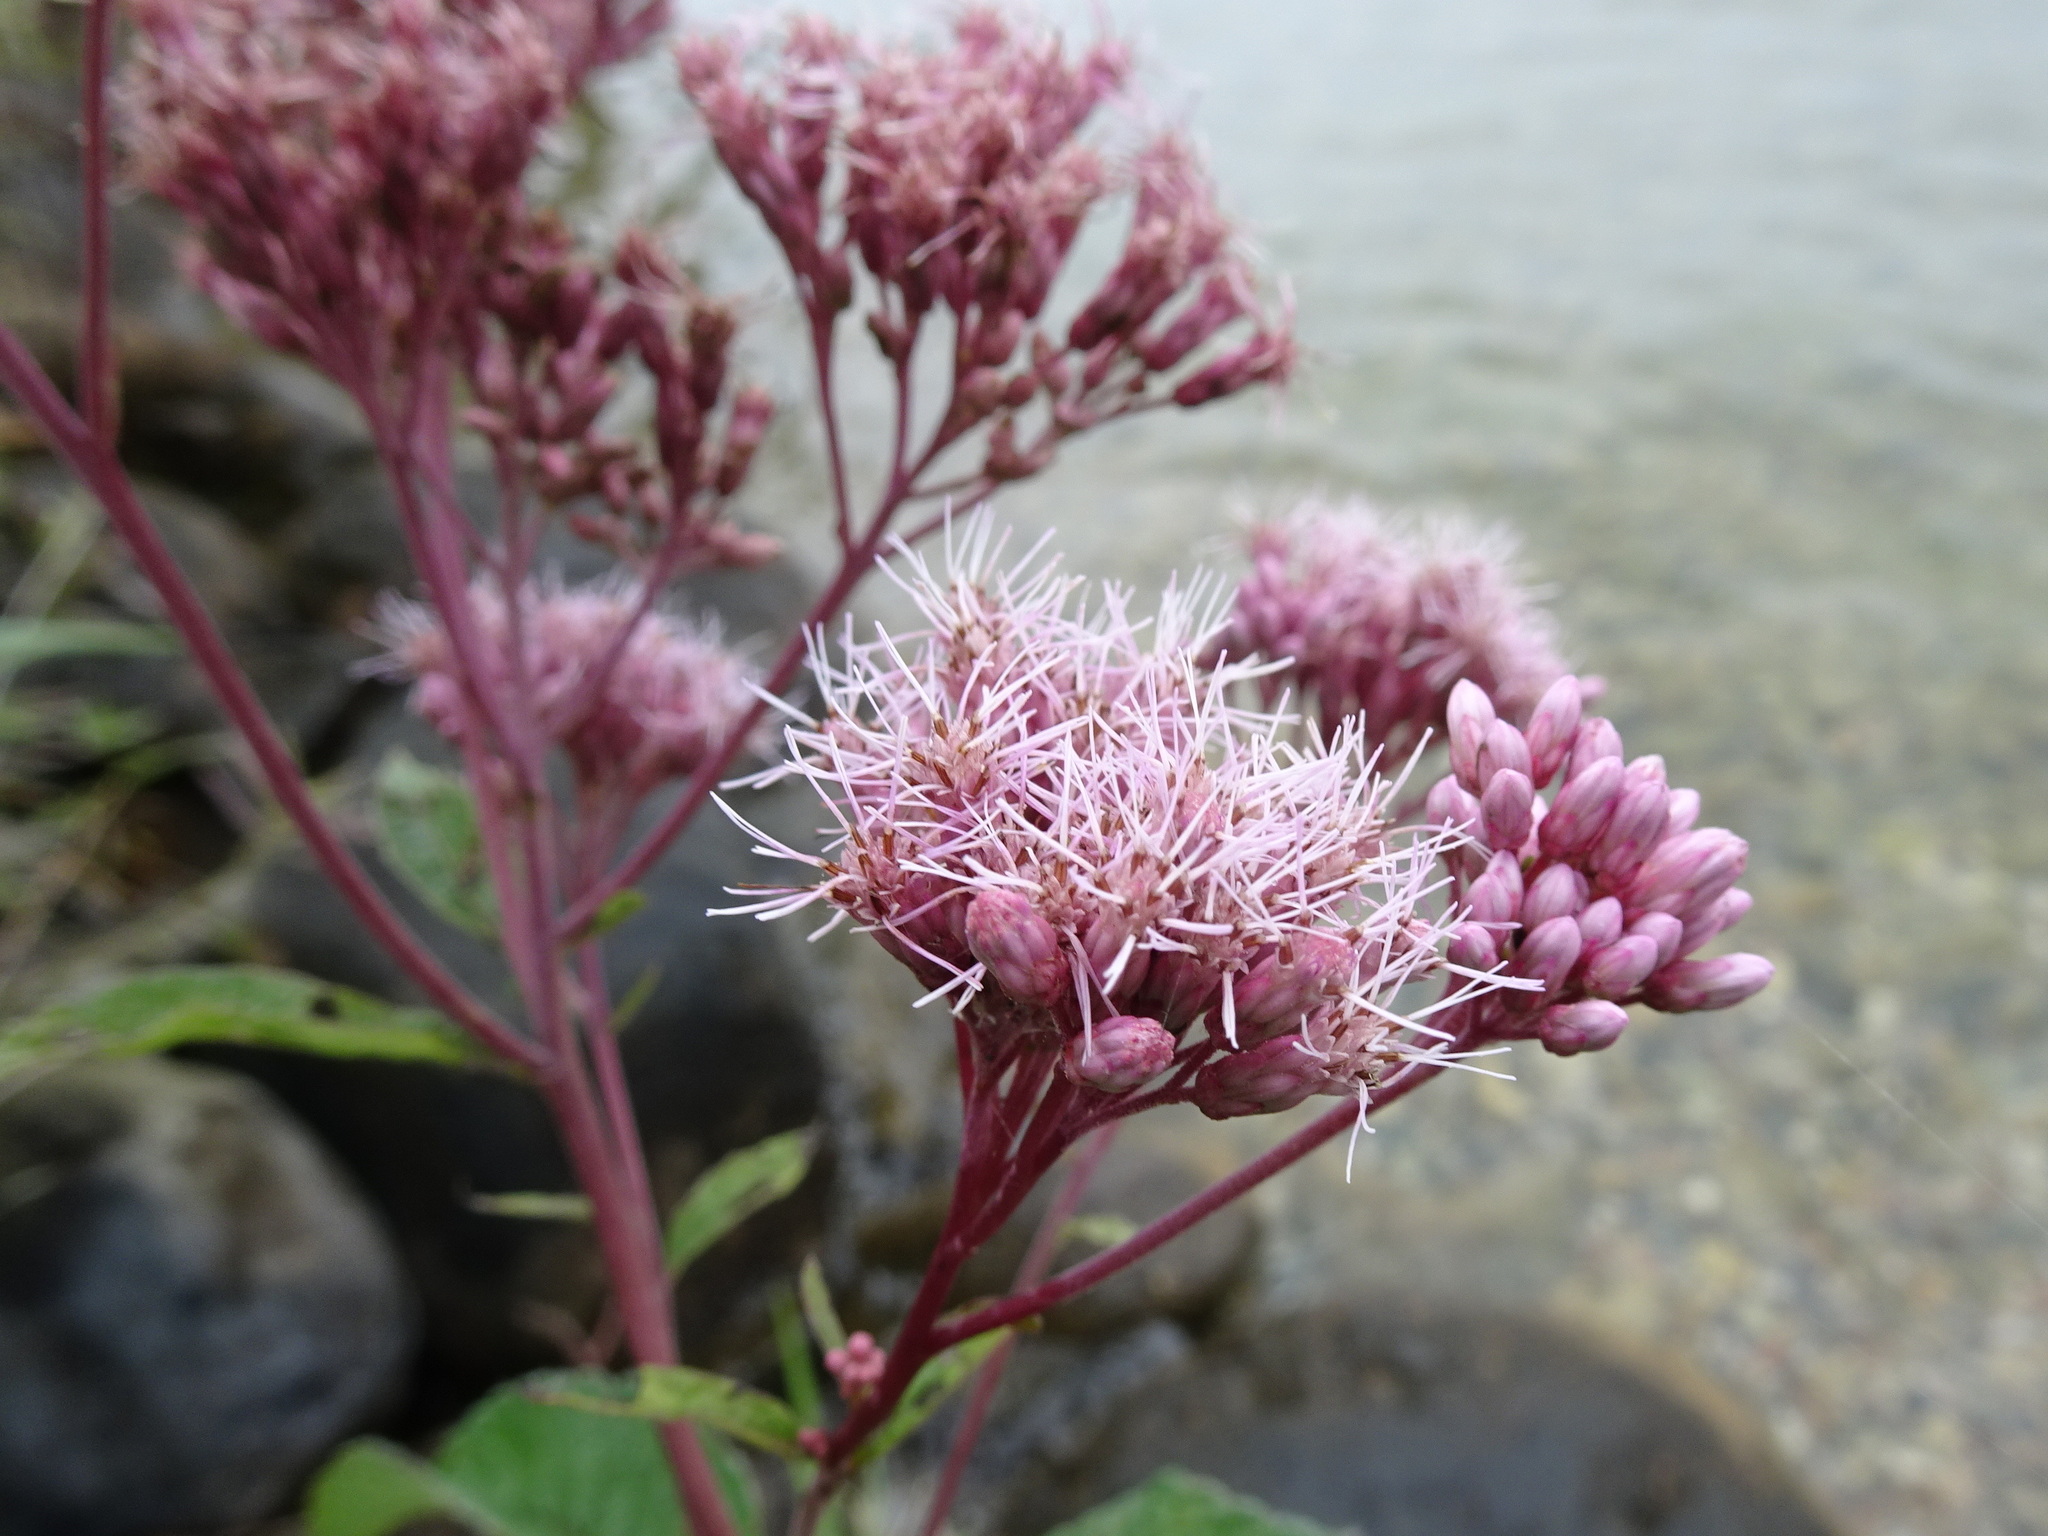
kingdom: Plantae
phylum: Tracheophyta
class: Magnoliopsida
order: Asterales
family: Asteraceae
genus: Eutrochium
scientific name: Eutrochium maculatum
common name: Spotted joe pye weed
